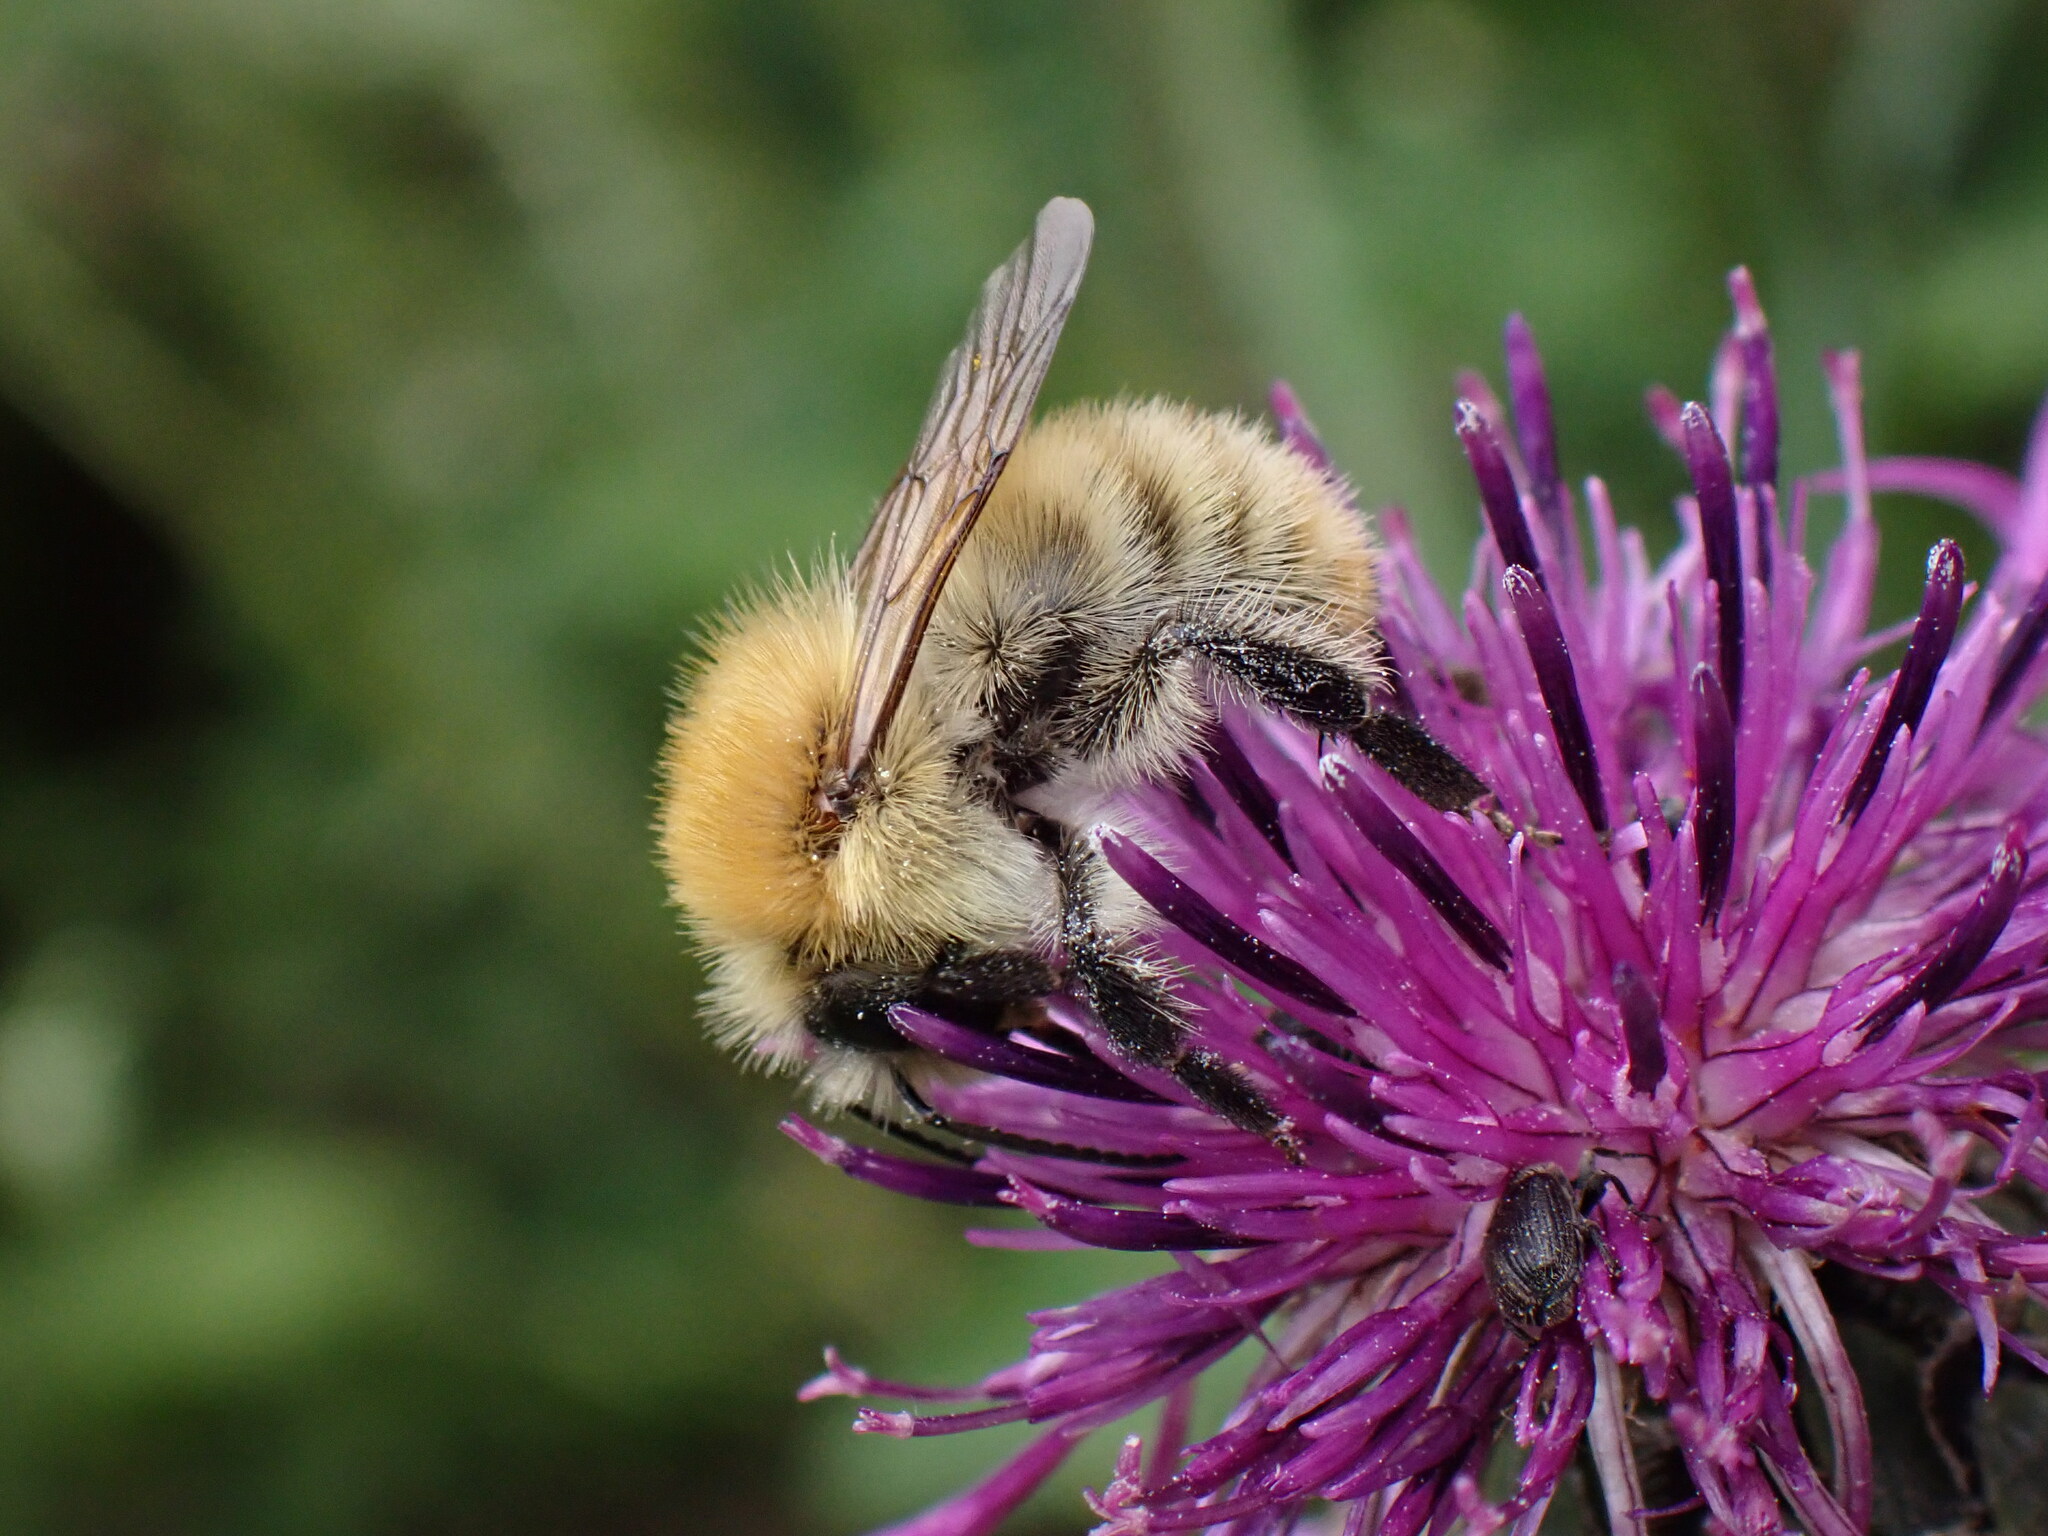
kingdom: Animalia
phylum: Arthropoda
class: Insecta
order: Hymenoptera
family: Apidae
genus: Bombus
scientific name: Bombus pascuorum
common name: Common carder bee
